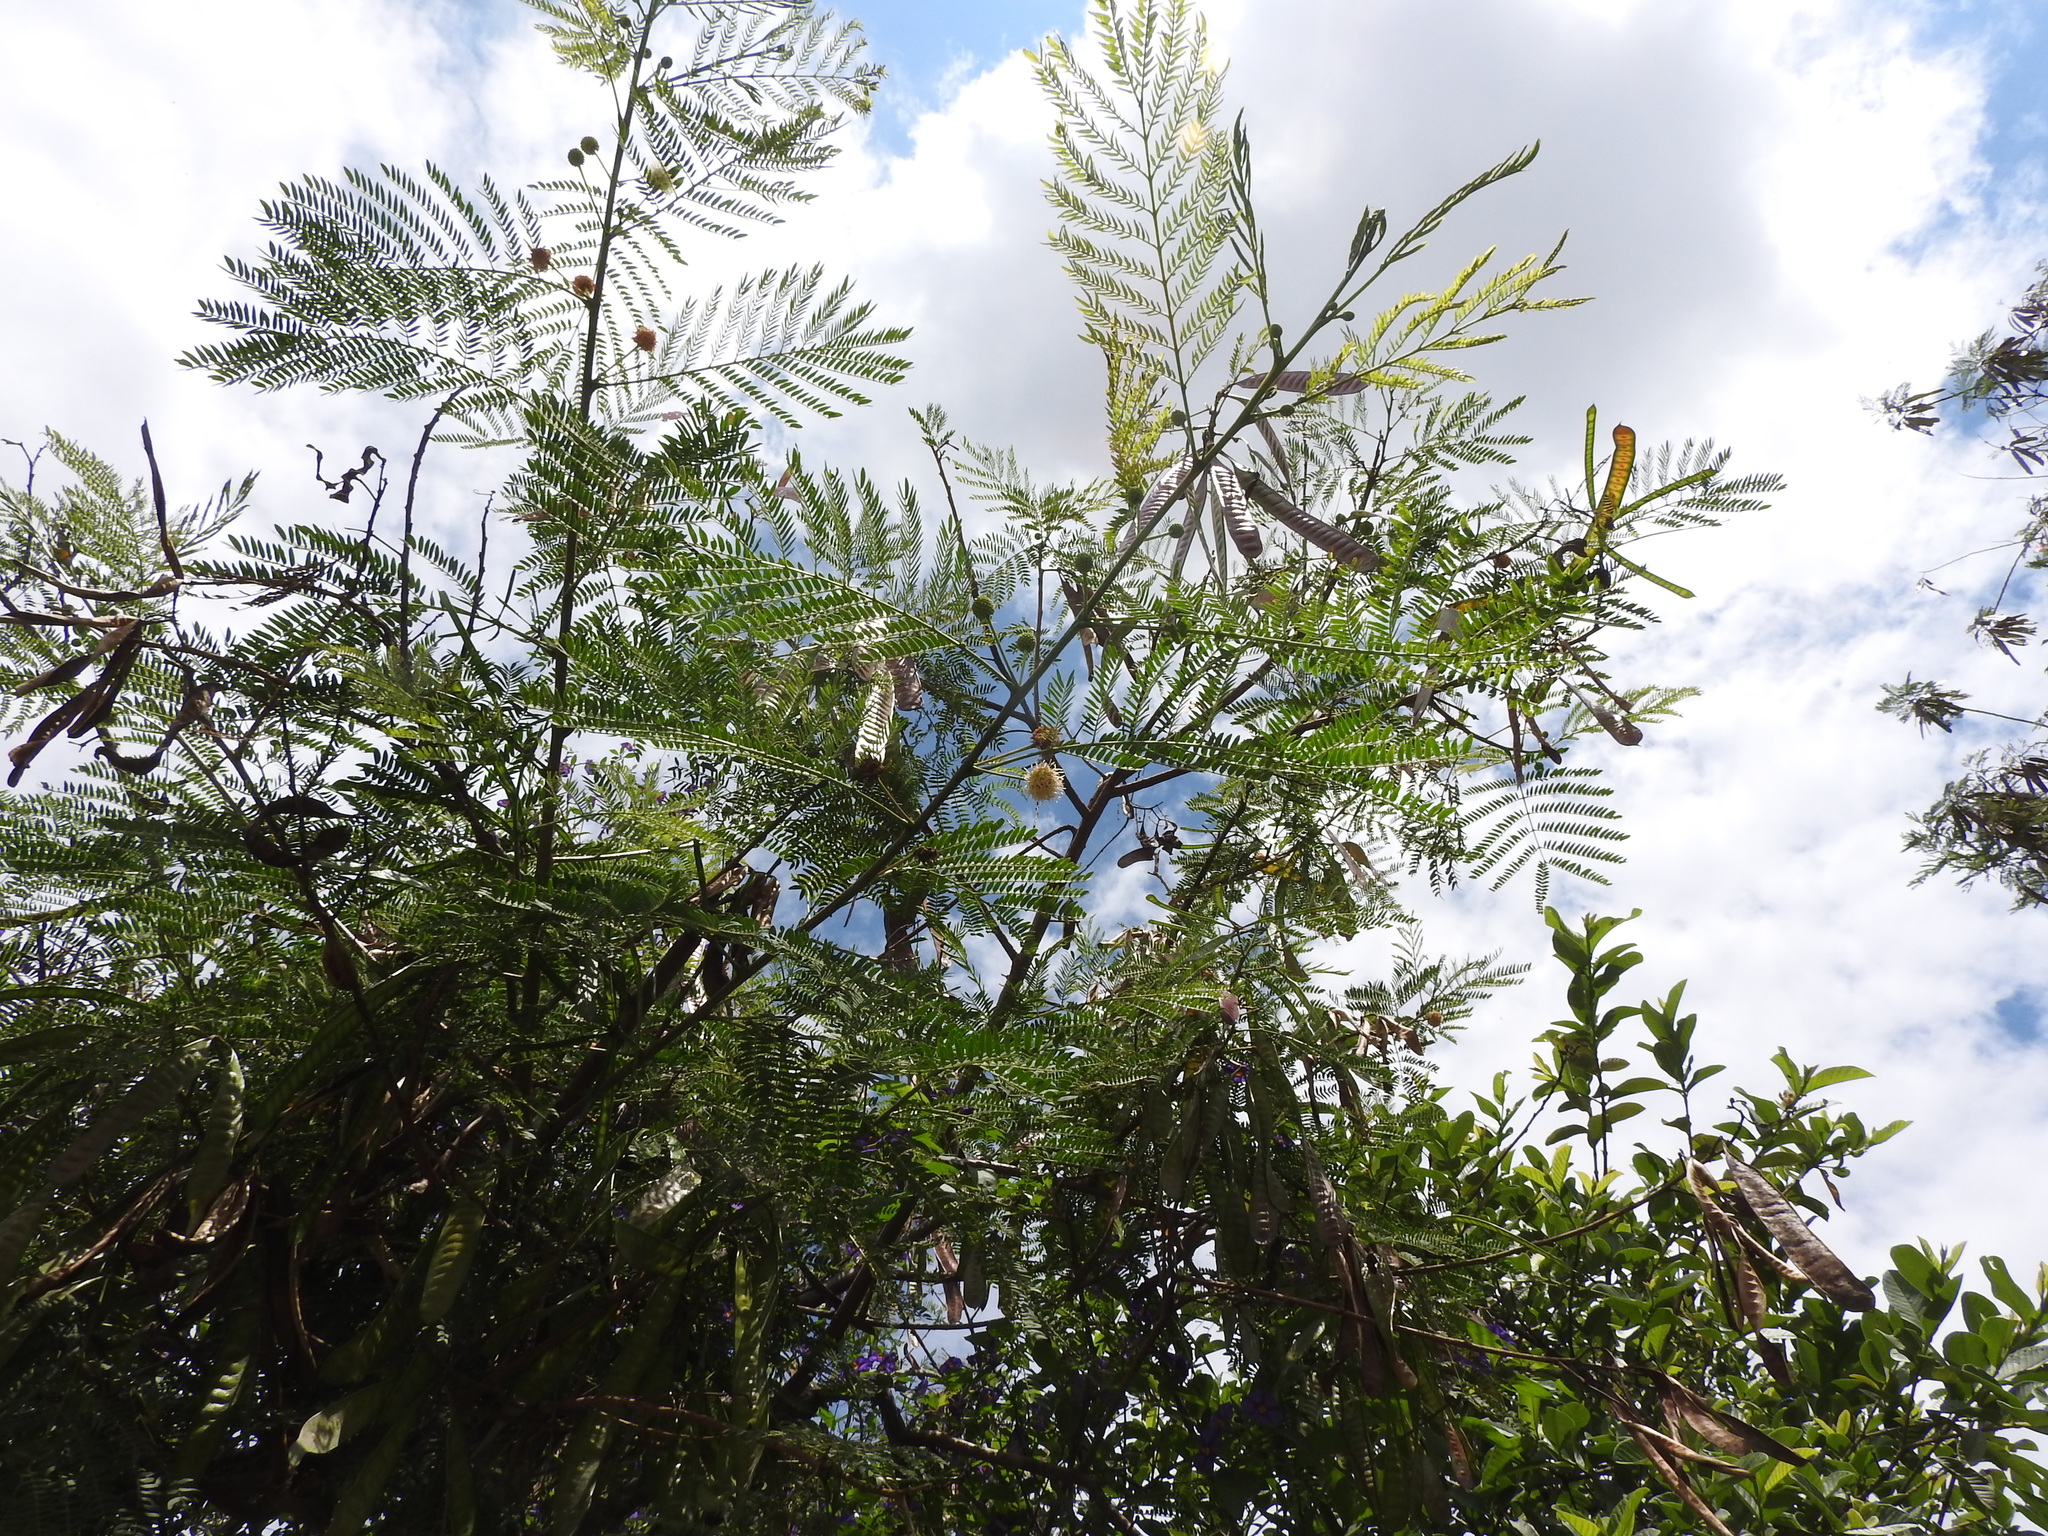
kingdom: Plantae
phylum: Tracheophyta
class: Magnoliopsida
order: Fabales
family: Fabaceae
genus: Leucaena
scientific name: Leucaena leucocephala
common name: White leadtree
